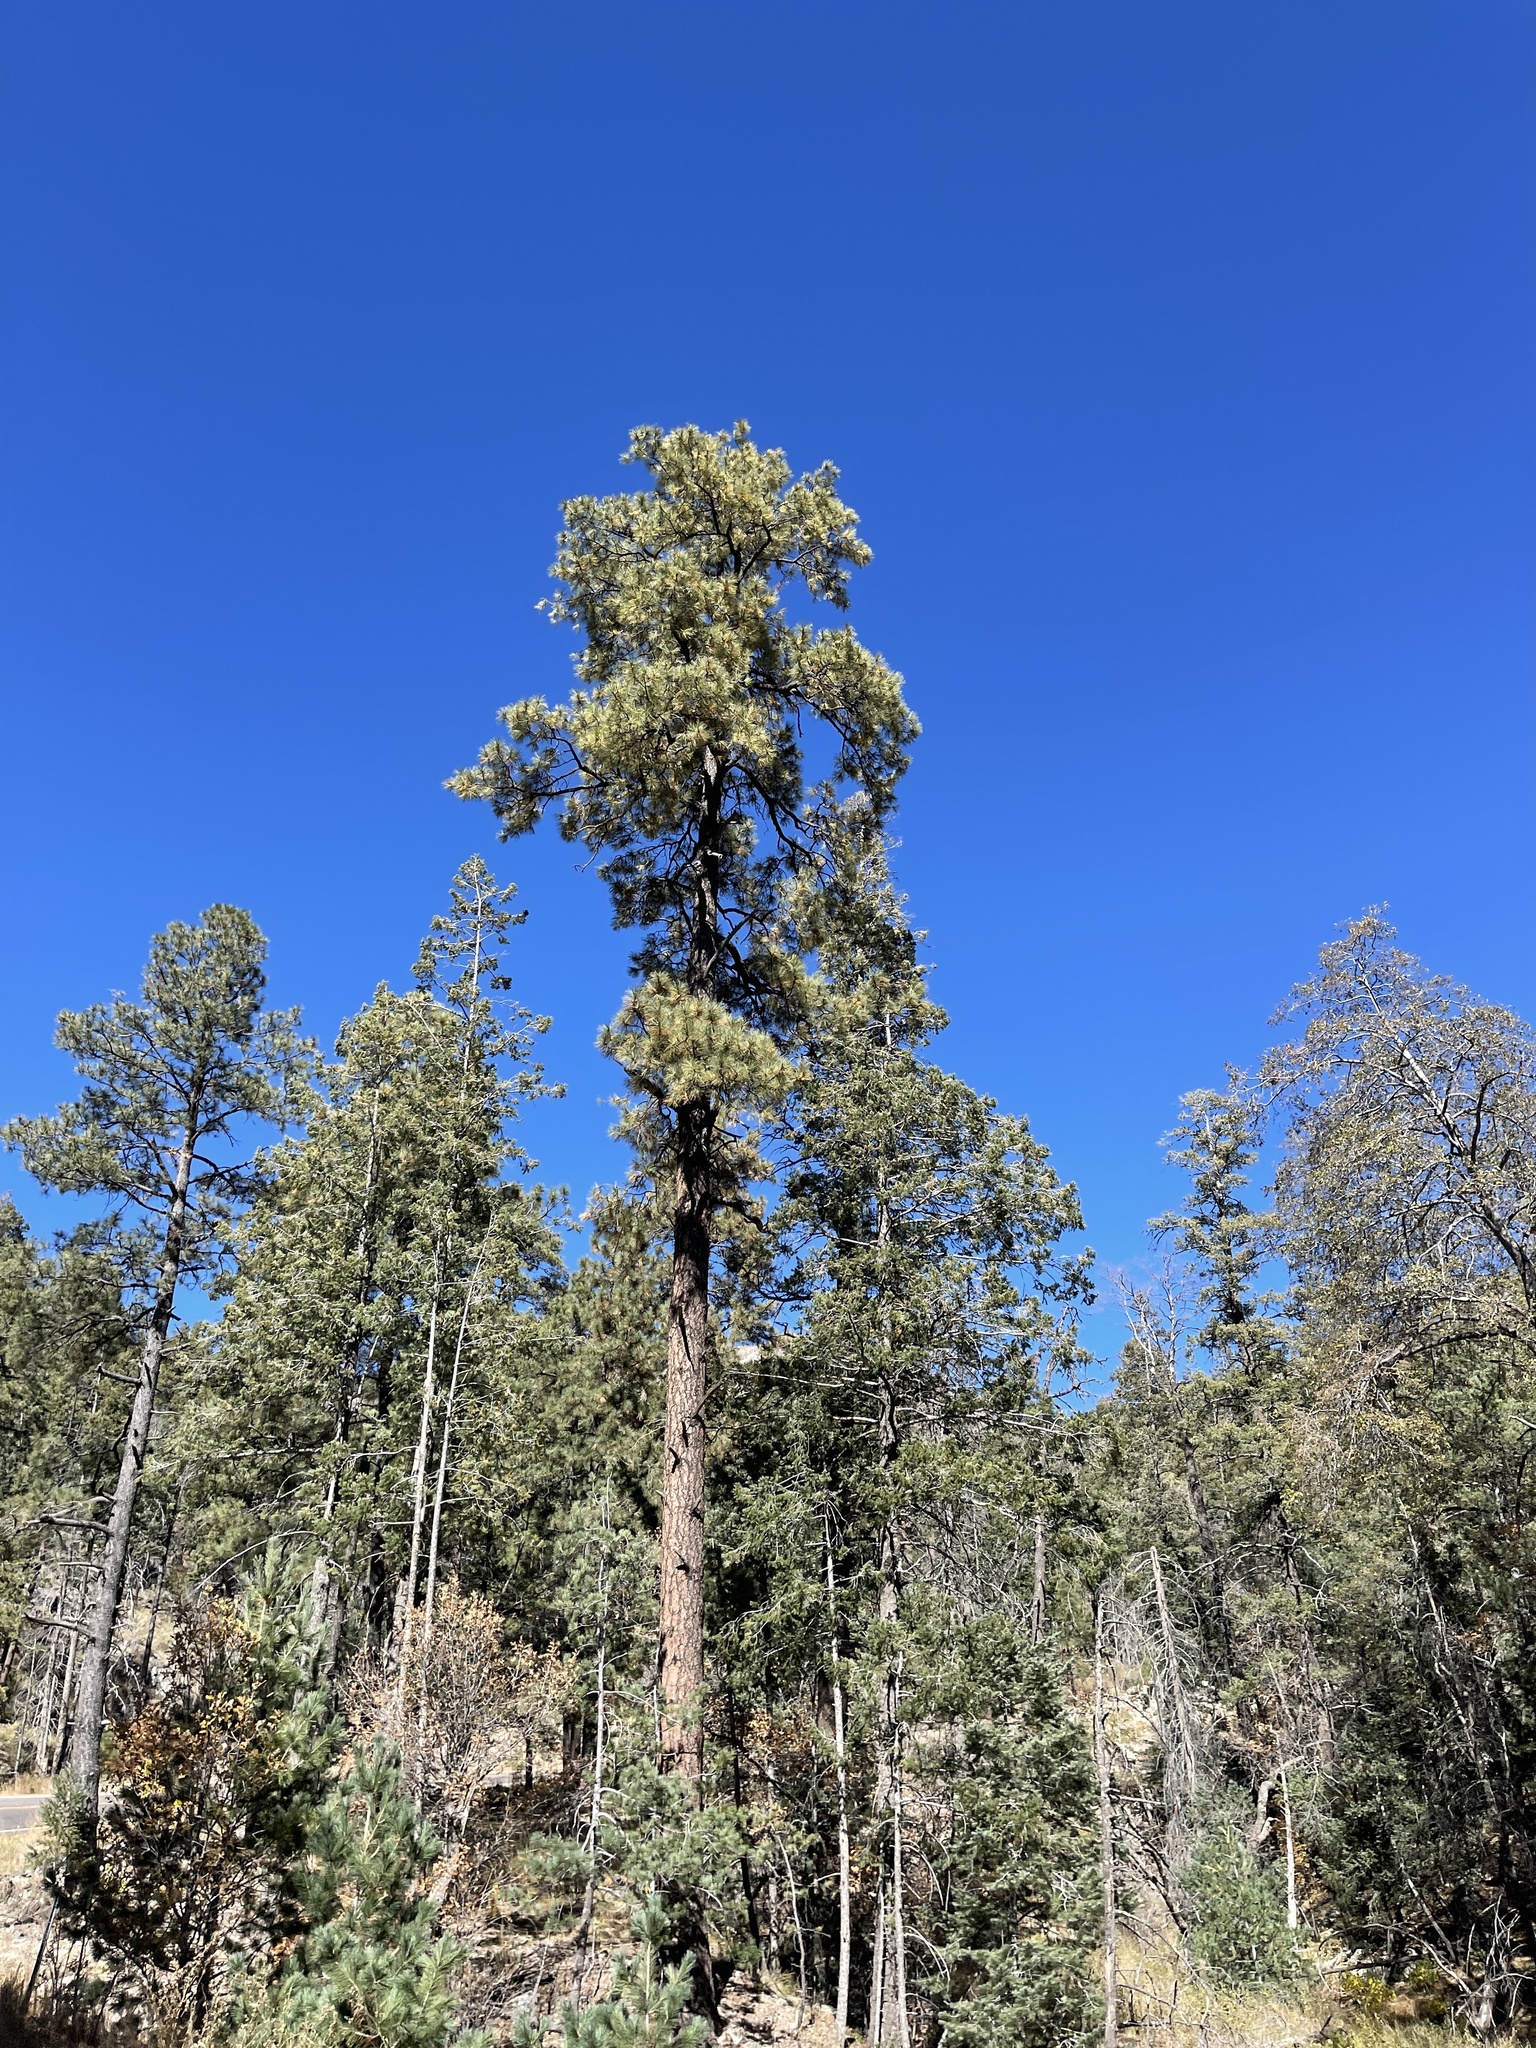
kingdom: Plantae
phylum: Tracheophyta
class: Pinopsida
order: Pinales
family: Pinaceae
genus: Pinus
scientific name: Pinus ponderosa
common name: Western yellow-pine
